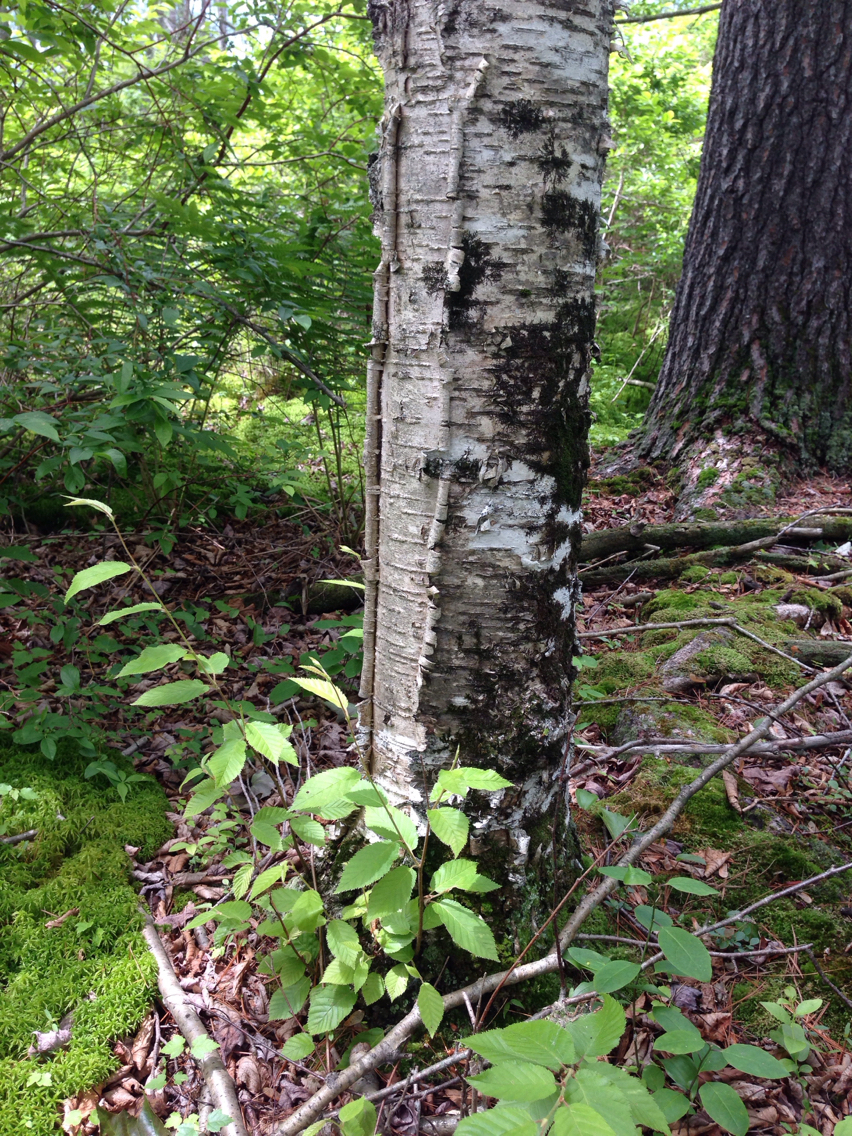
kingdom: Plantae
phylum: Tracheophyta
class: Magnoliopsida
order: Fagales
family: Betulaceae
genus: Betula
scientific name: Betula alleghaniensis
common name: Yellow birch
